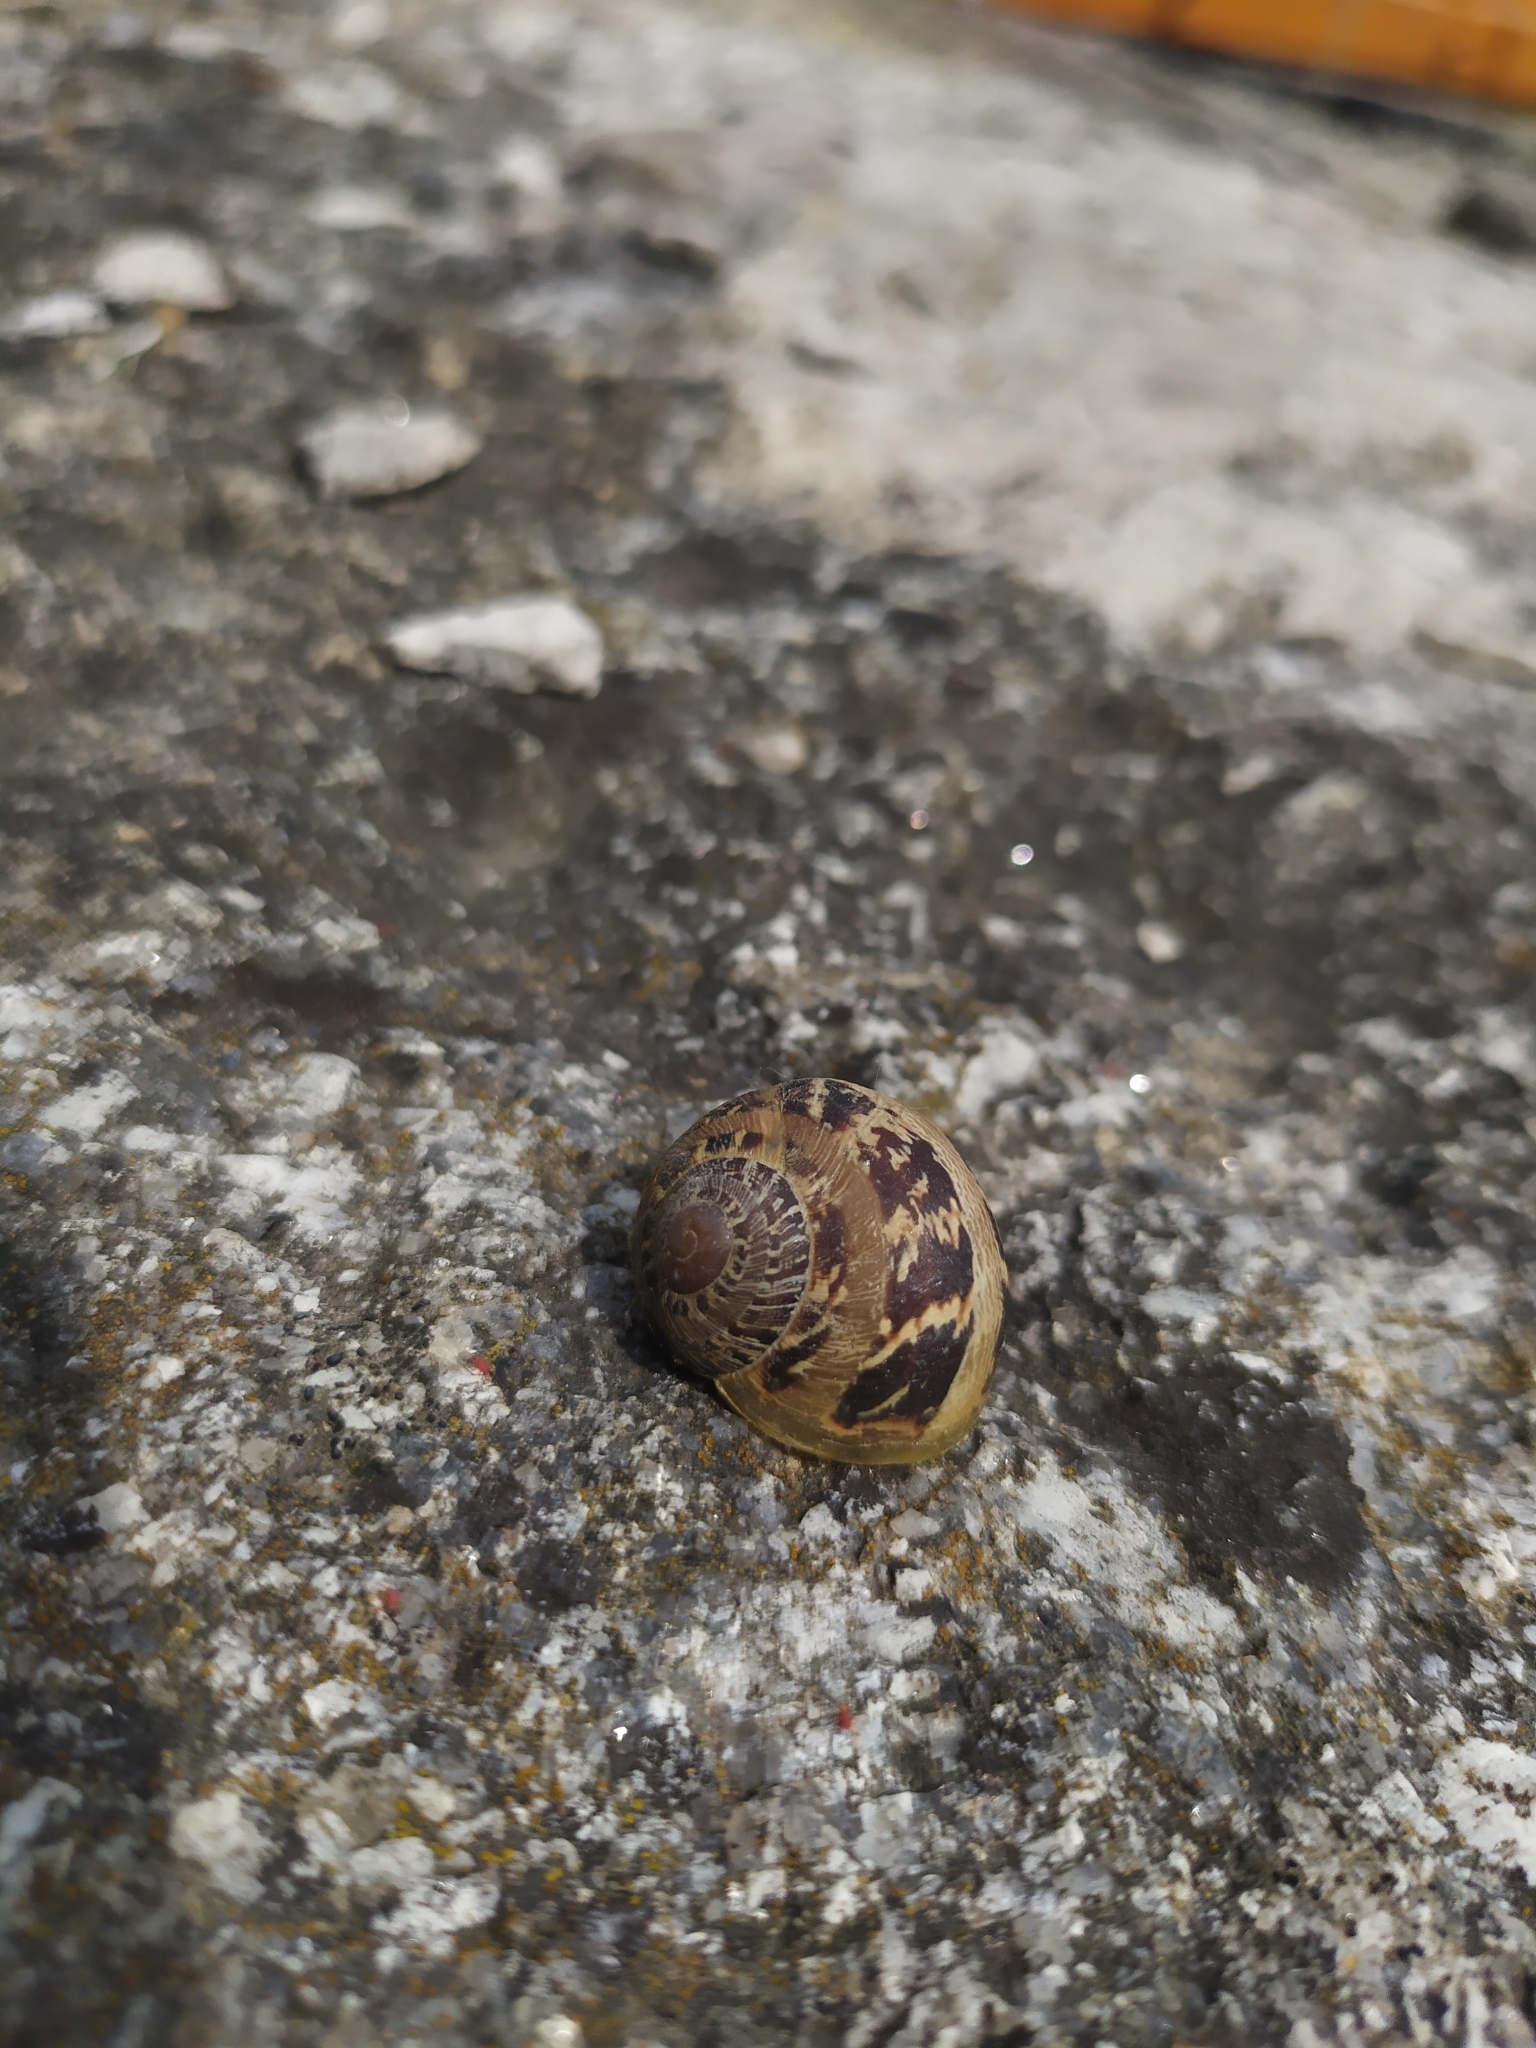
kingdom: Animalia
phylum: Mollusca
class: Gastropoda
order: Stylommatophora
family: Helicidae
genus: Cornu
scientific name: Cornu aspersum
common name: Brown garden snail
